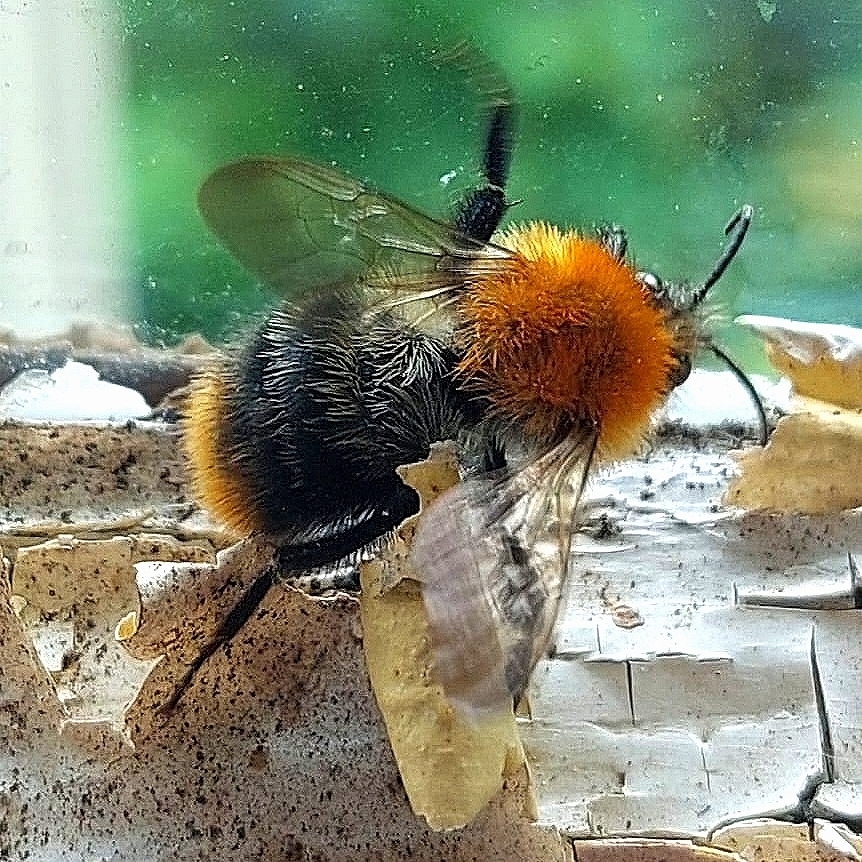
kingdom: Animalia
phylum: Arthropoda
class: Insecta
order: Hymenoptera
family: Apidae
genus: Bombus
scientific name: Bombus pascuorum
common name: Common carder bee
